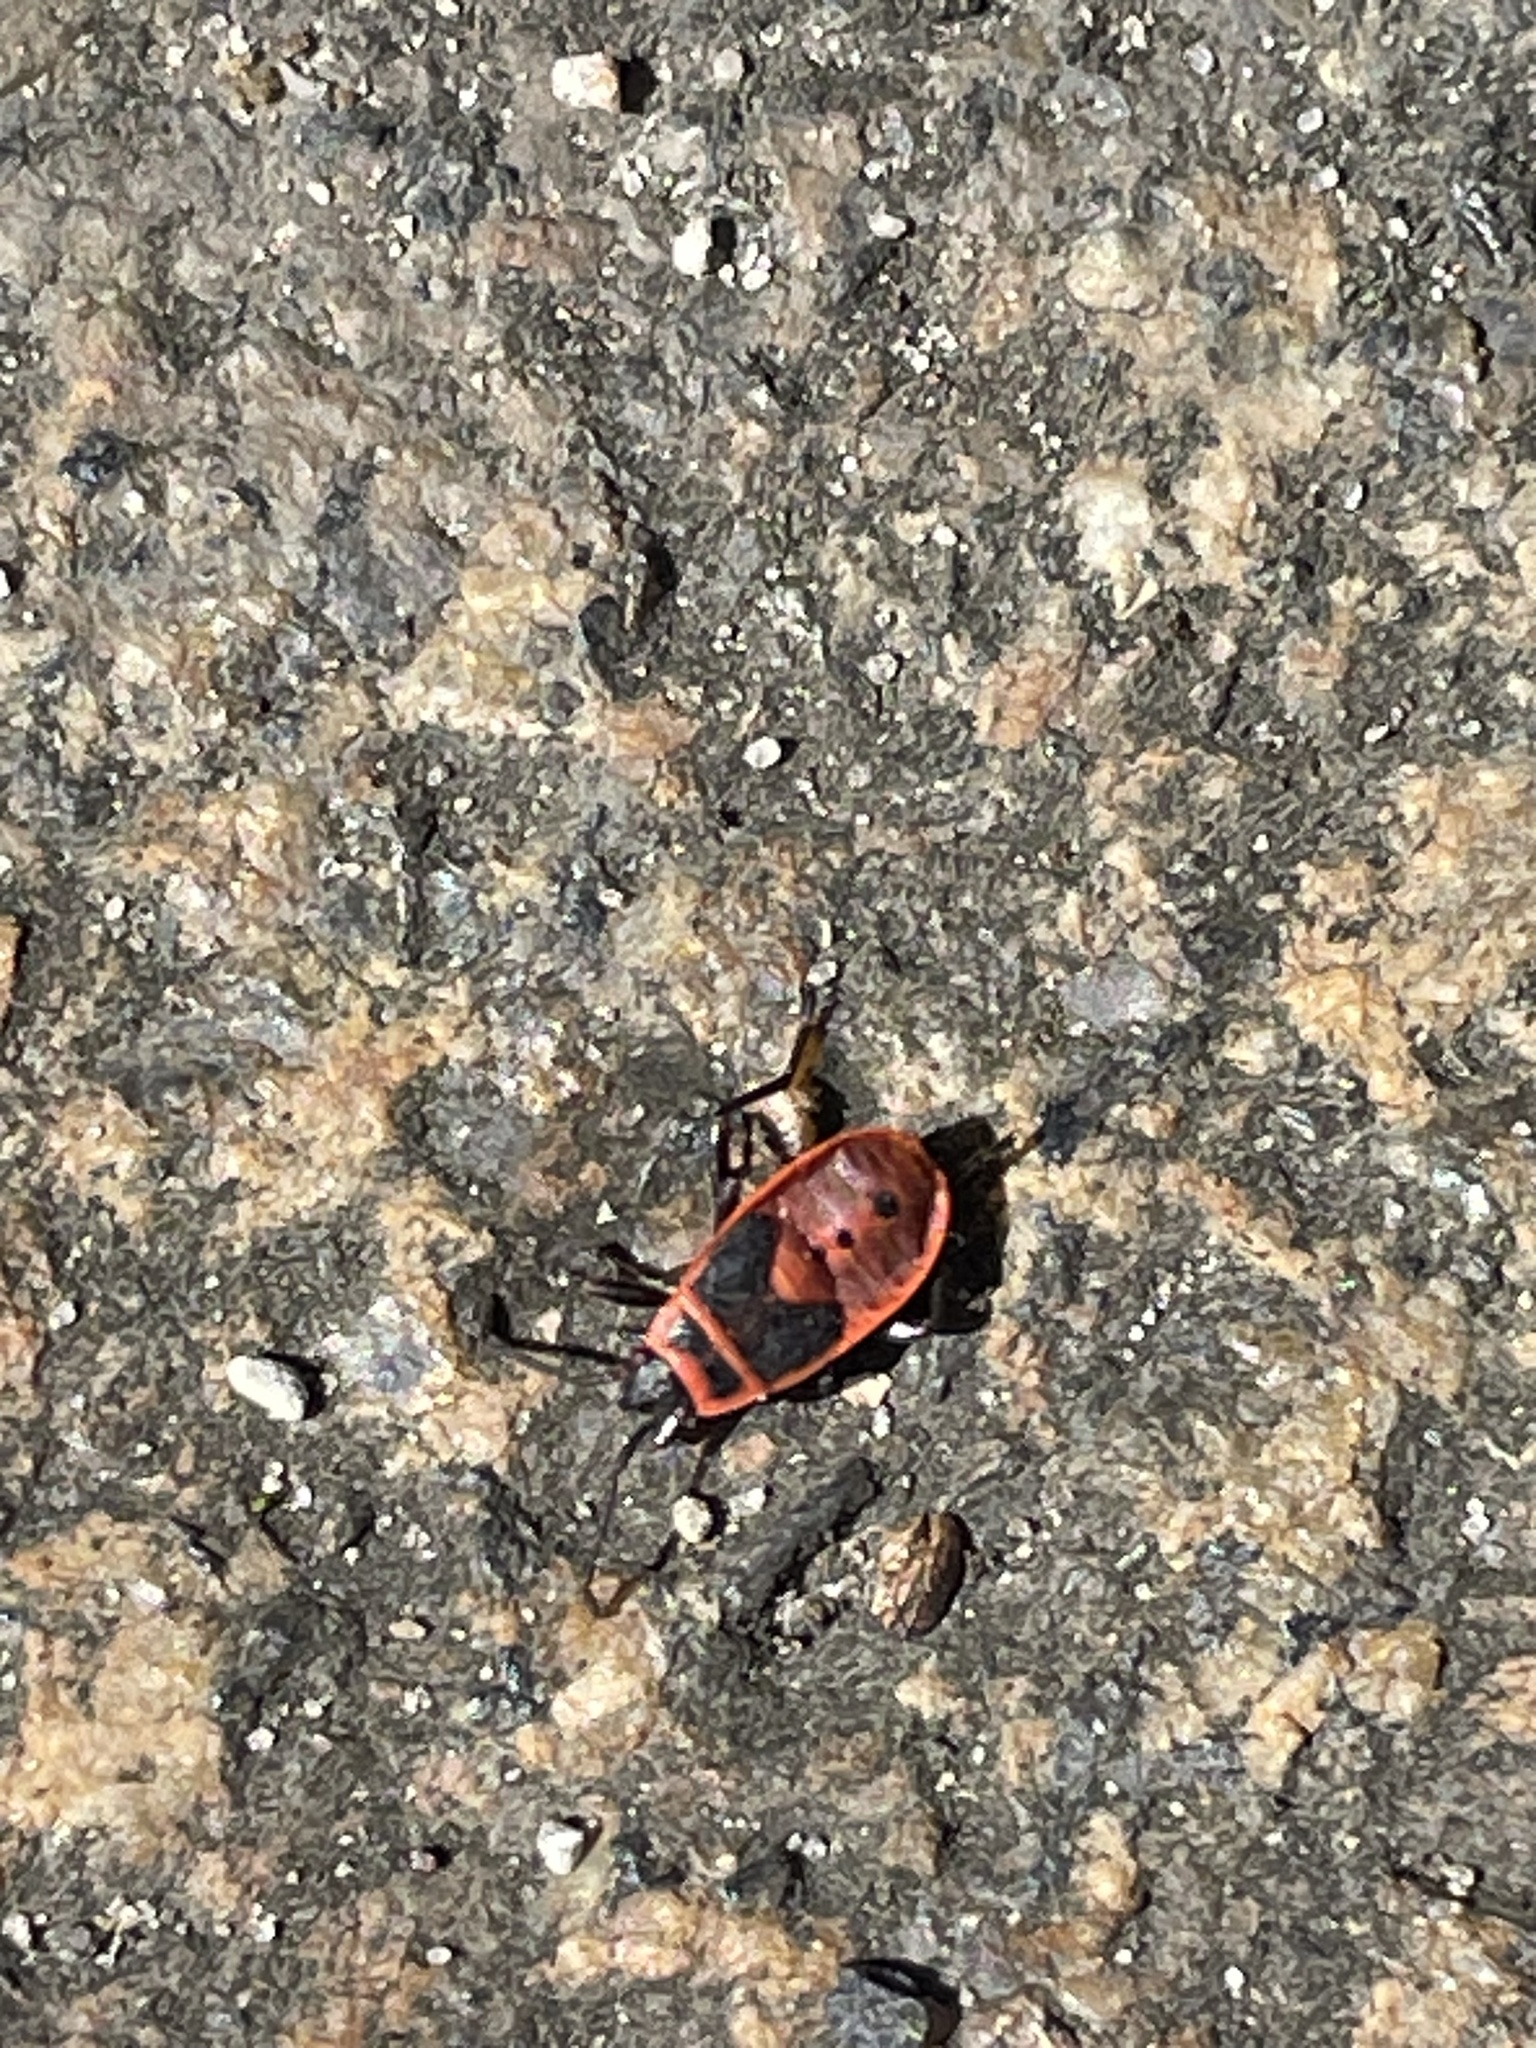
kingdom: Animalia
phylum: Arthropoda
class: Insecta
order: Hemiptera
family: Pyrrhocoridae
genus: Pyrrhocoris
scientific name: Pyrrhocoris apterus
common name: Firebug
